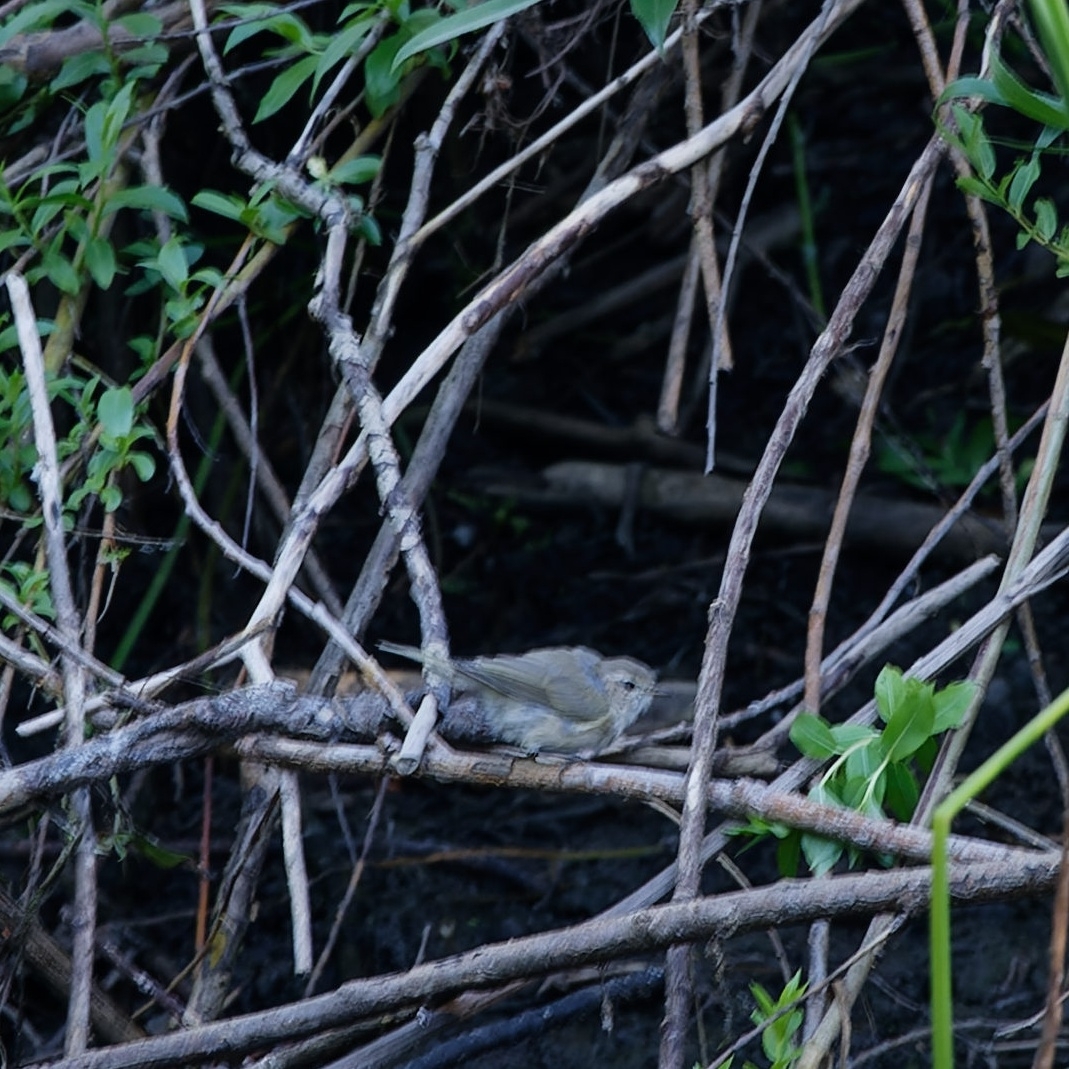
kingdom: Animalia
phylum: Chordata
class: Aves
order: Passeriformes
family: Phylloscopidae
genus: Phylloscopus
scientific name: Phylloscopus collybita
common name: Common chiffchaff
